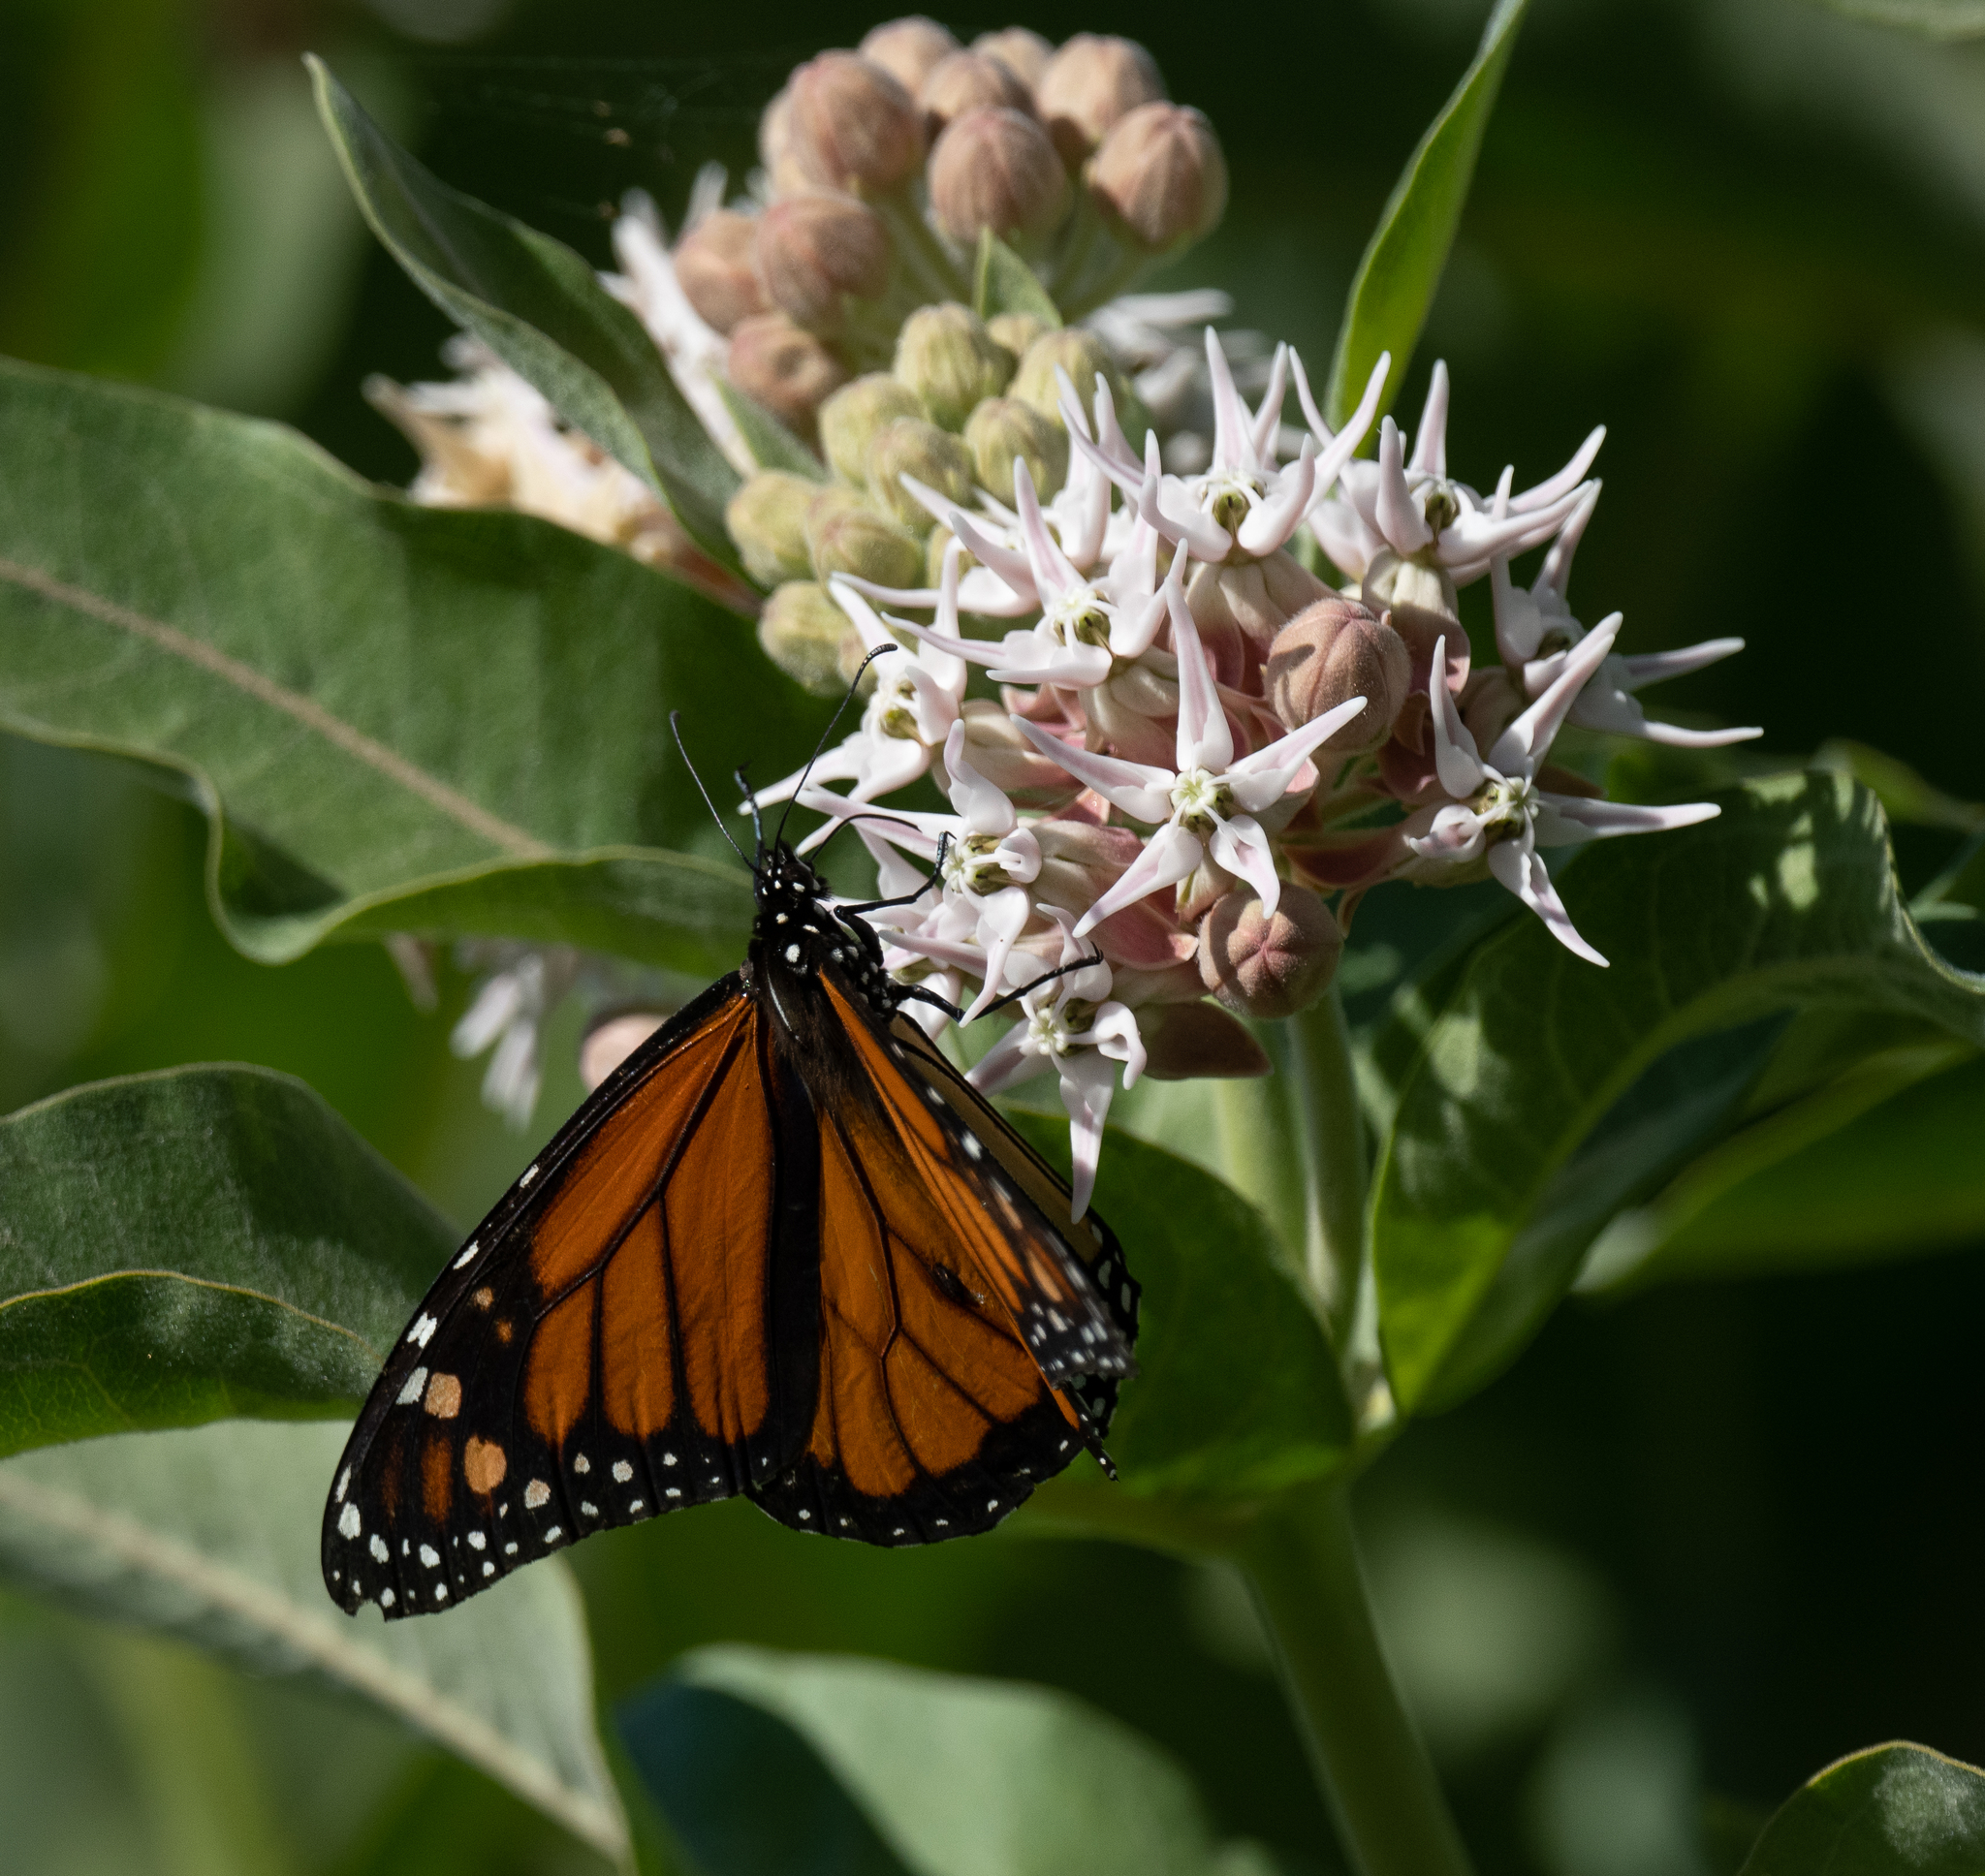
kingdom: Animalia
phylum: Arthropoda
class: Insecta
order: Lepidoptera
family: Nymphalidae
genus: Danaus
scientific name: Danaus plexippus
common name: Monarch
